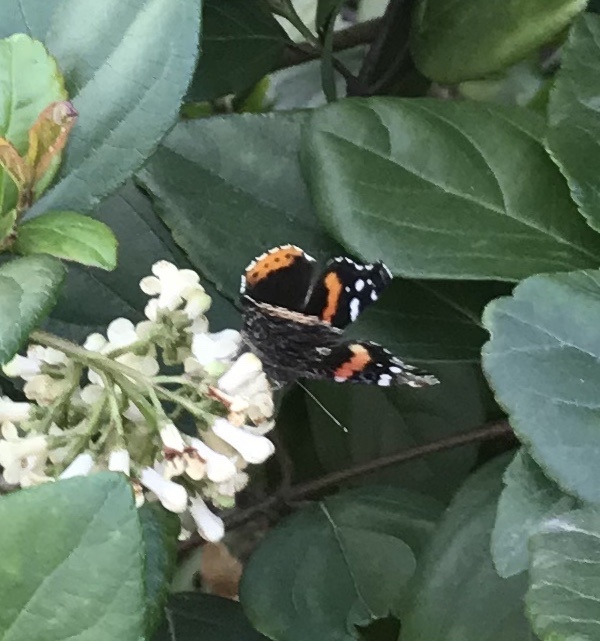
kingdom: Animalia
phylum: Arthropoda
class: Insecta
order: Lepidoptera
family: Nymphalidae
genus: Vanessa
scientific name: Vanessa atalanta
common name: Red admiral
